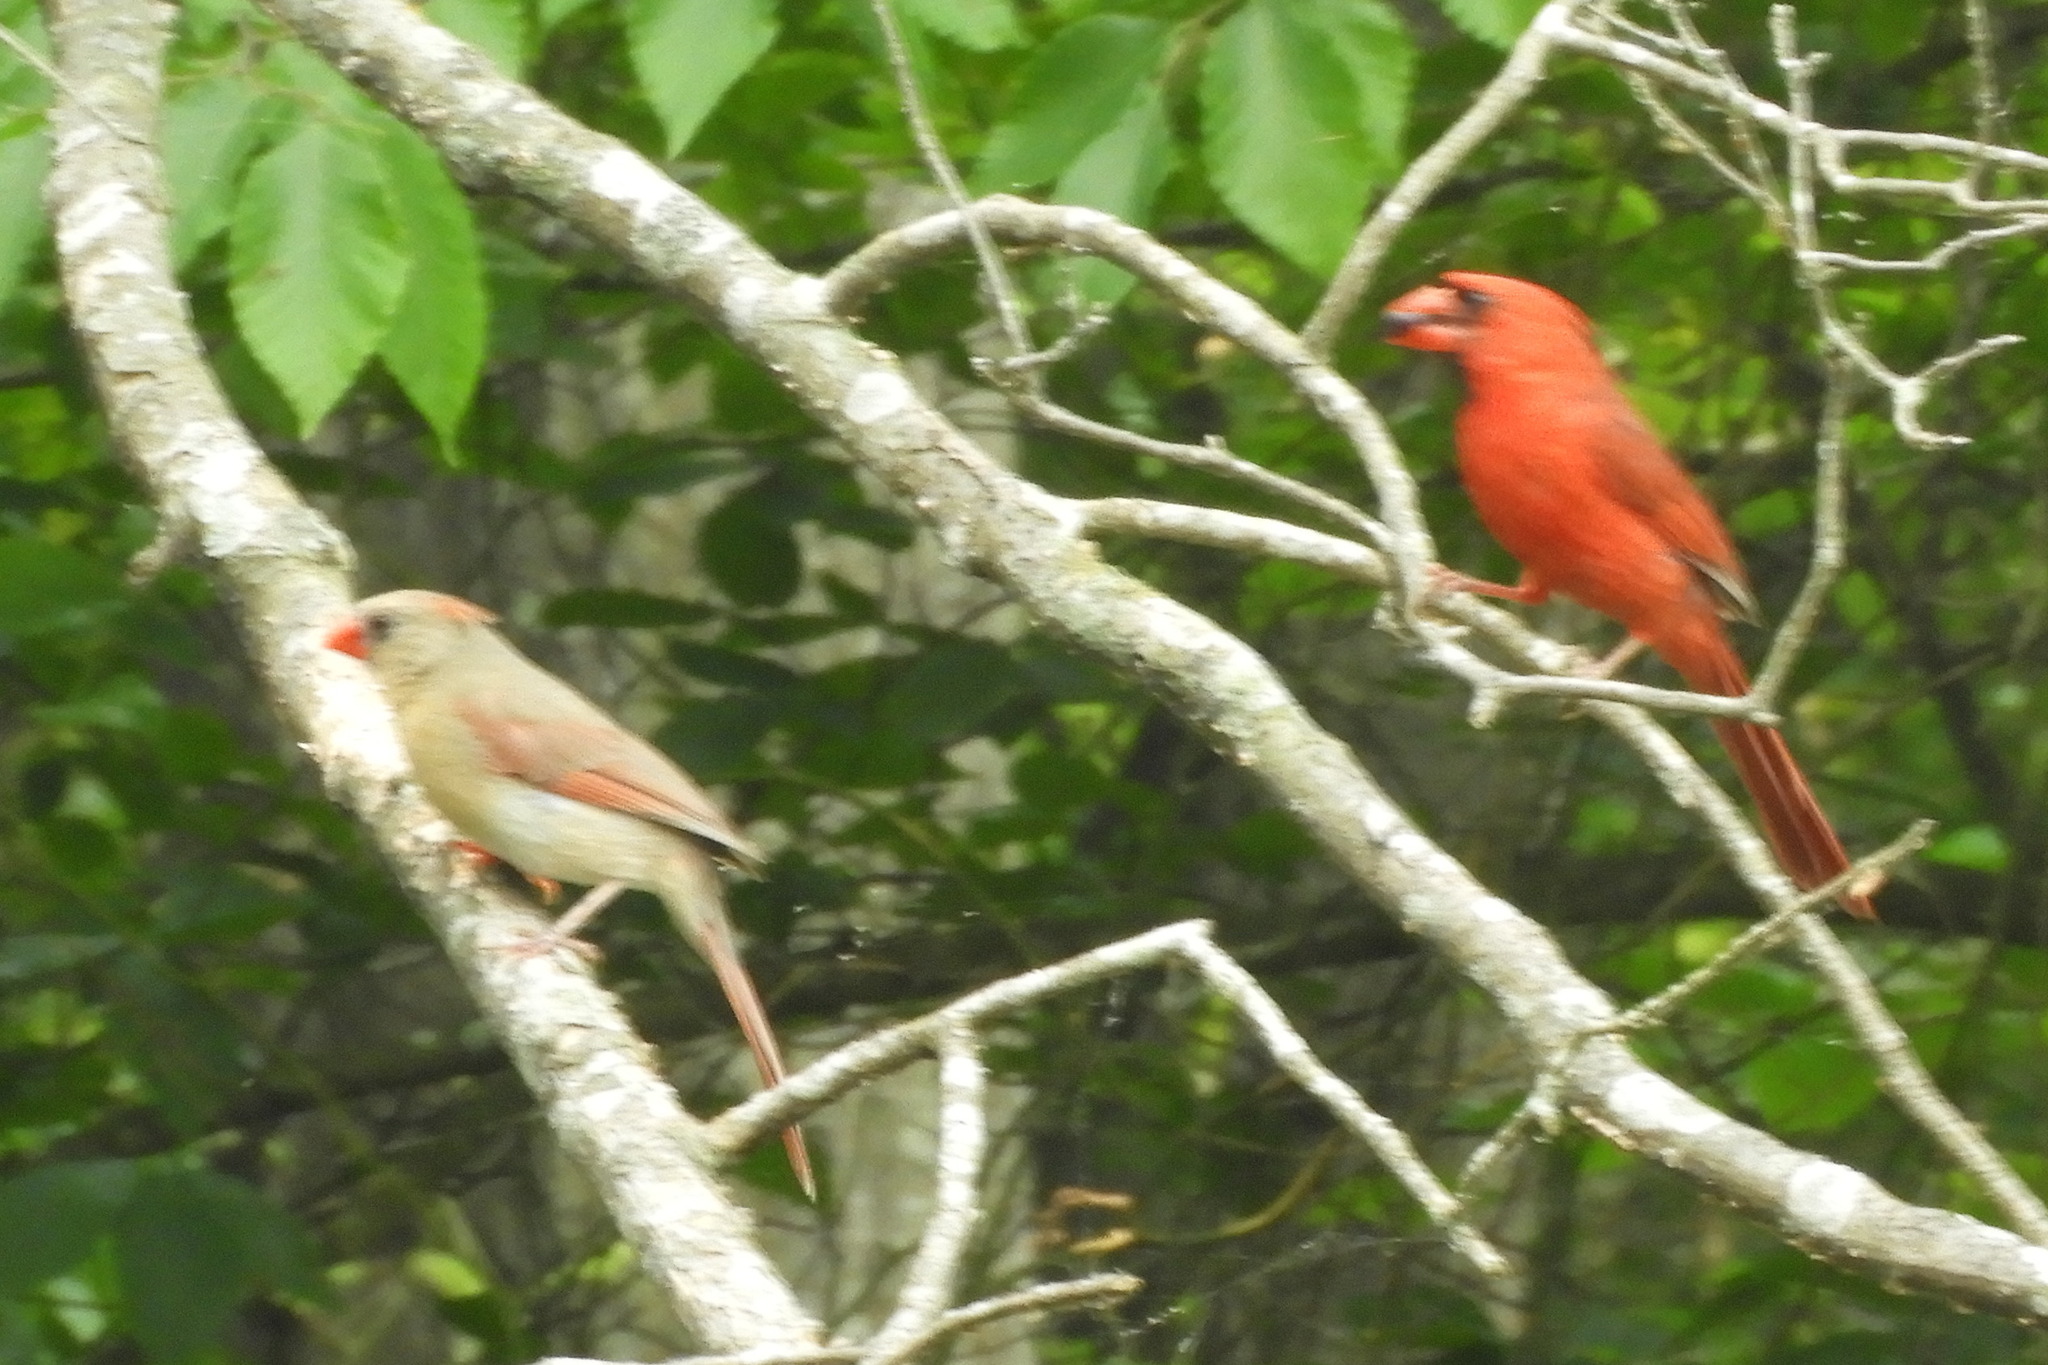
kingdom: Animalia
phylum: Chordata
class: Aves
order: Passeriformes
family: Cardinalidae
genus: Cardinalis
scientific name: Cardinalis cardinalis
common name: Northern cardinal
